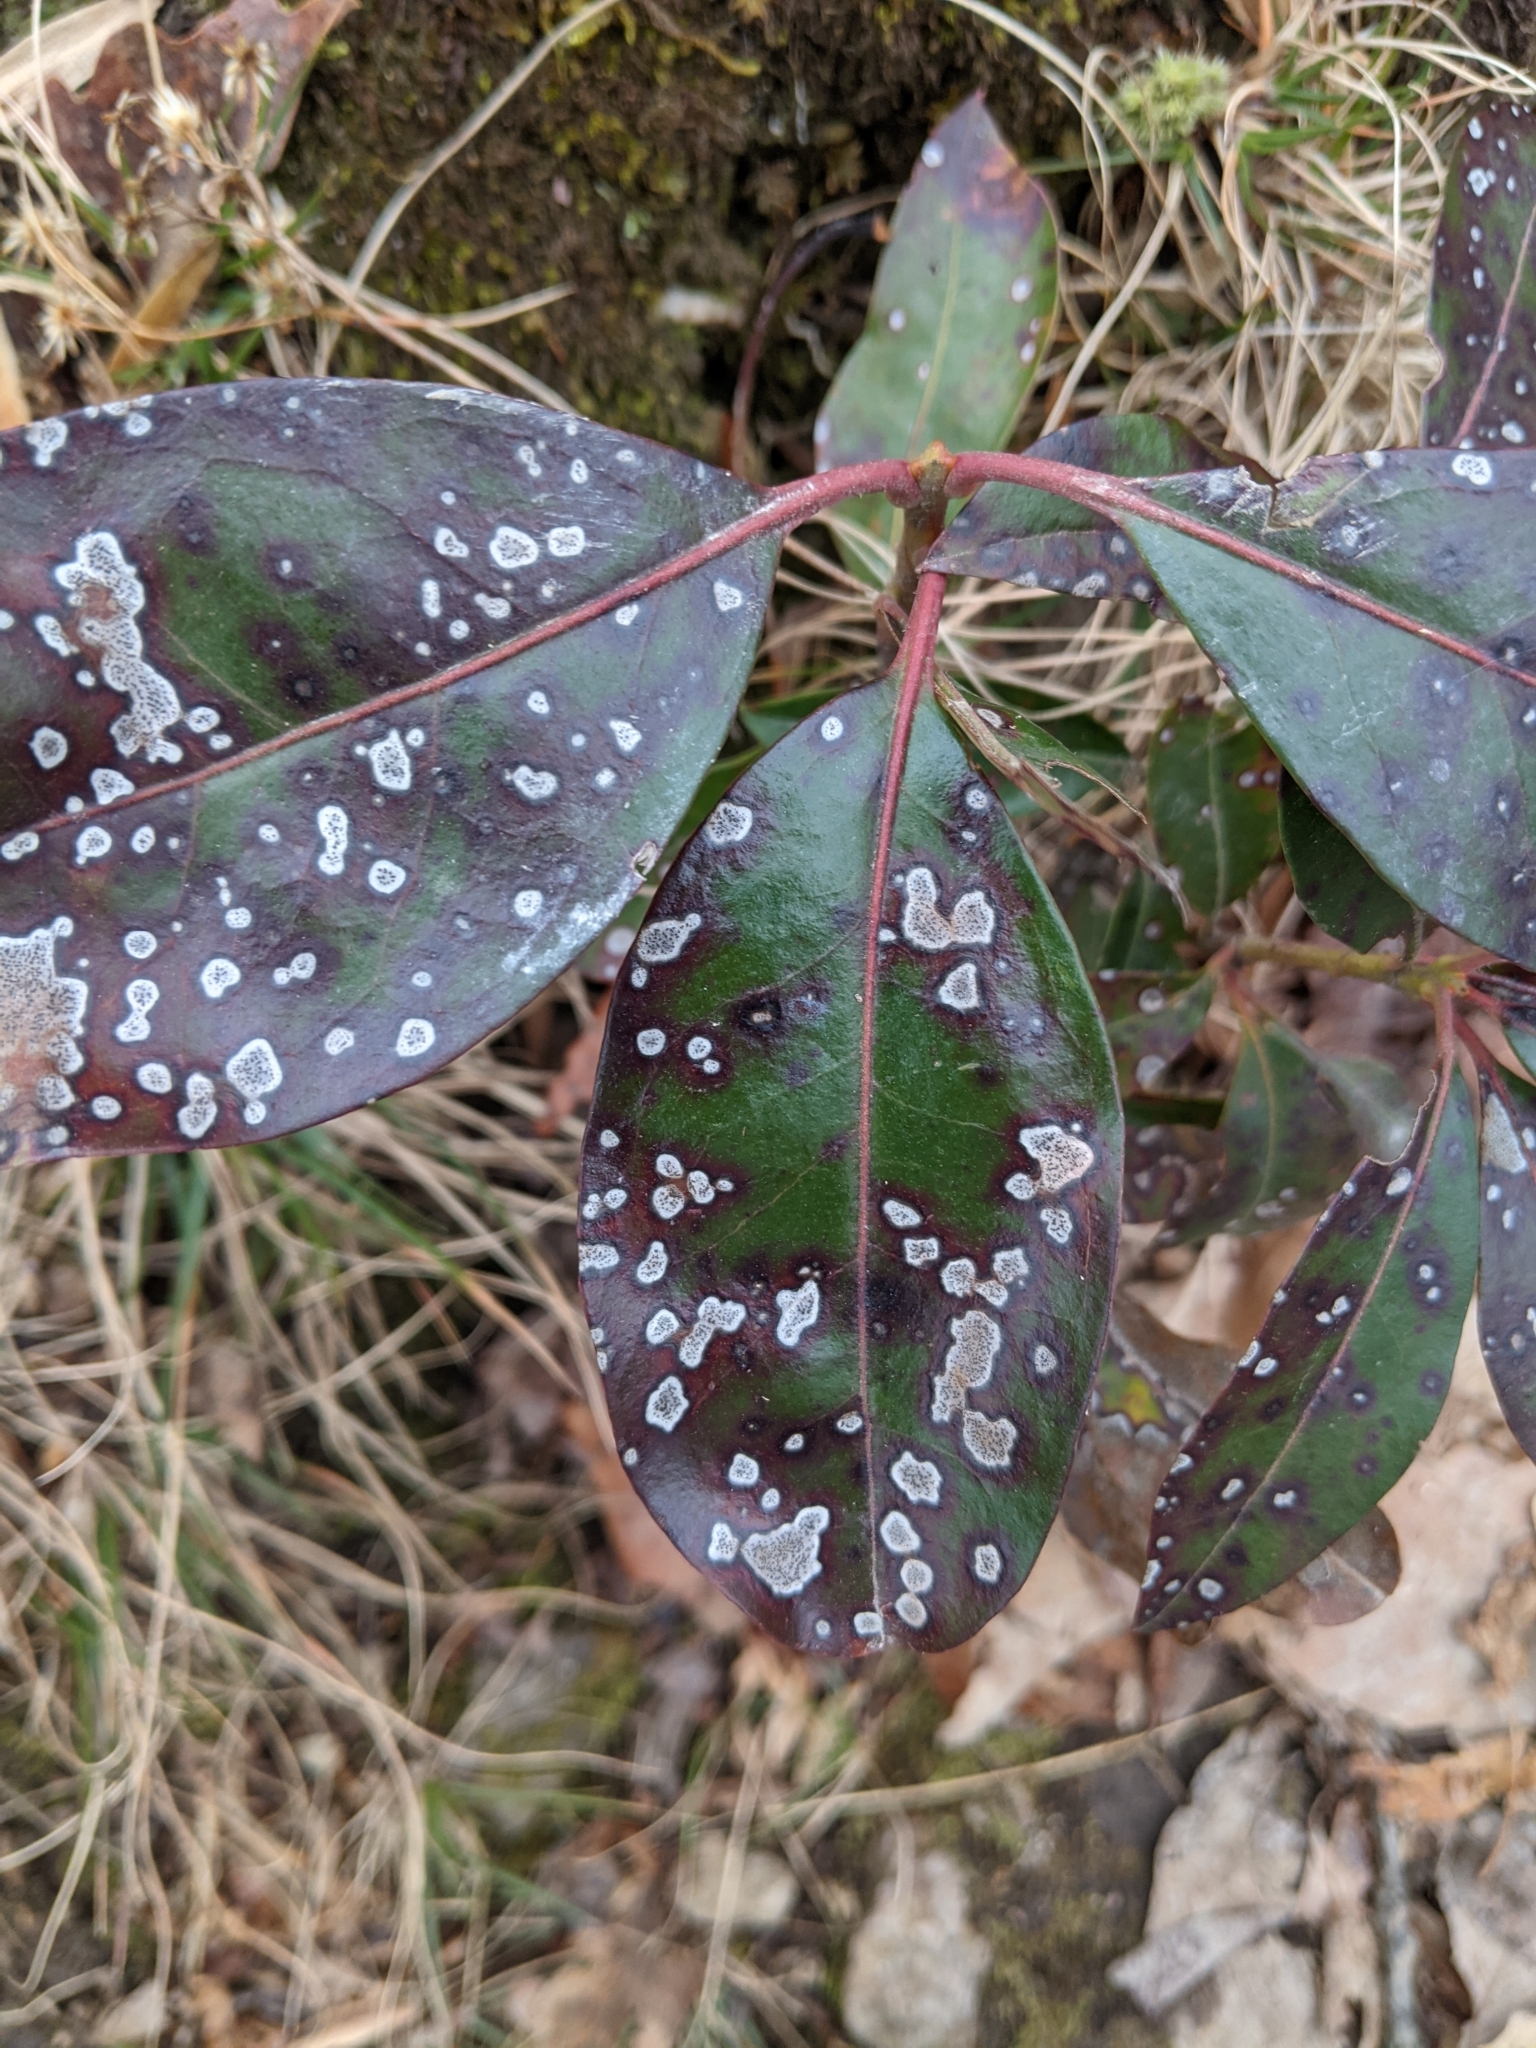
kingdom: Plantae
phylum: Tracheophyta
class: Magnoliopsida
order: Ericales
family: Ericaceae
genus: Kalmia
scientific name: Kalmia latifolia
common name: Mountain-laurel
